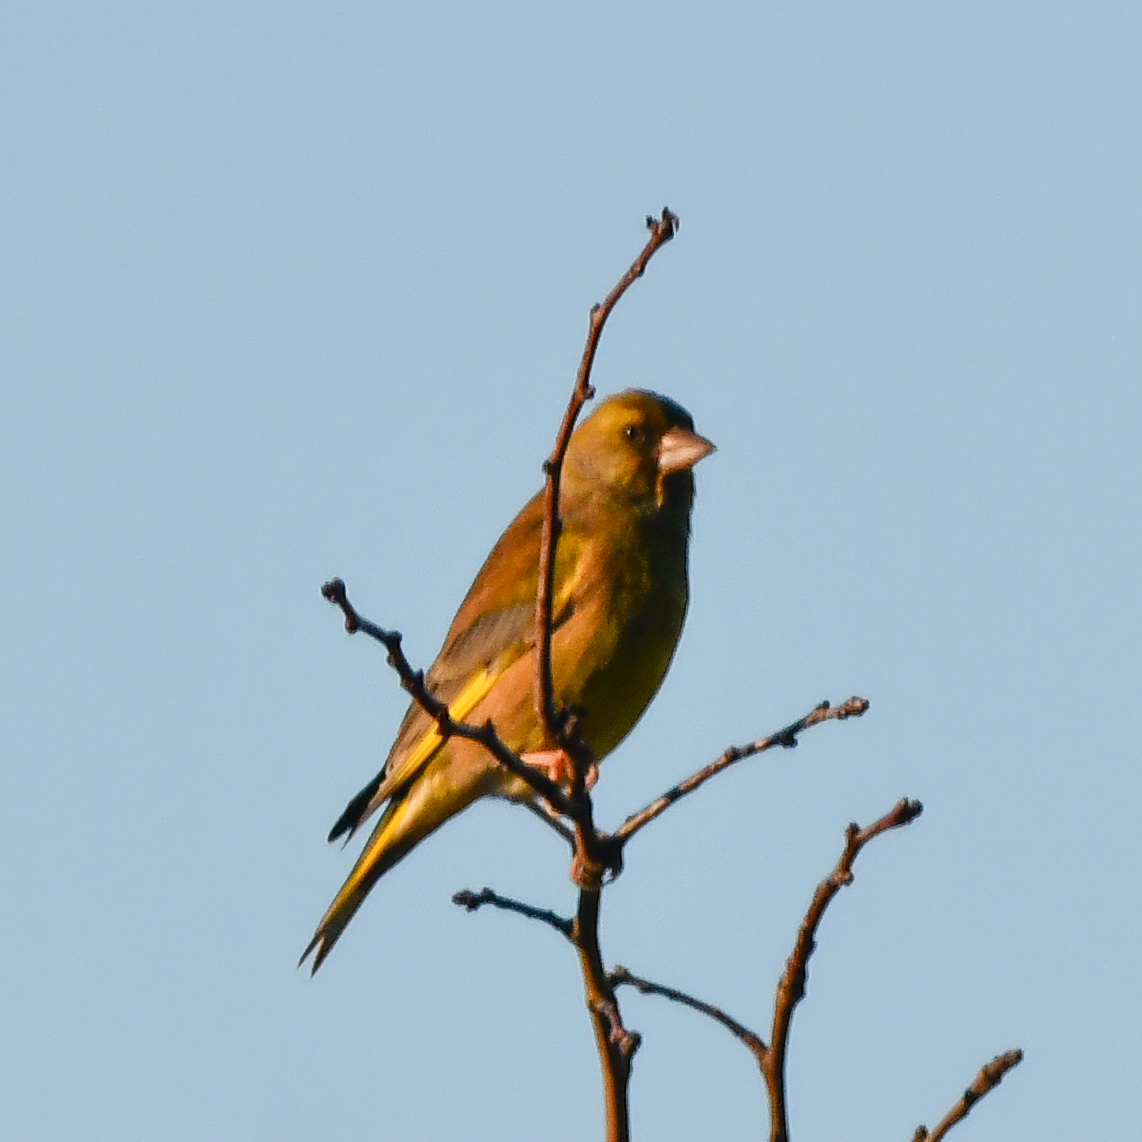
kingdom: Plantae
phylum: Tracheophyta
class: Liliopsida
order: Poales
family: Poaceae
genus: Chloris
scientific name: Chloris chloris
